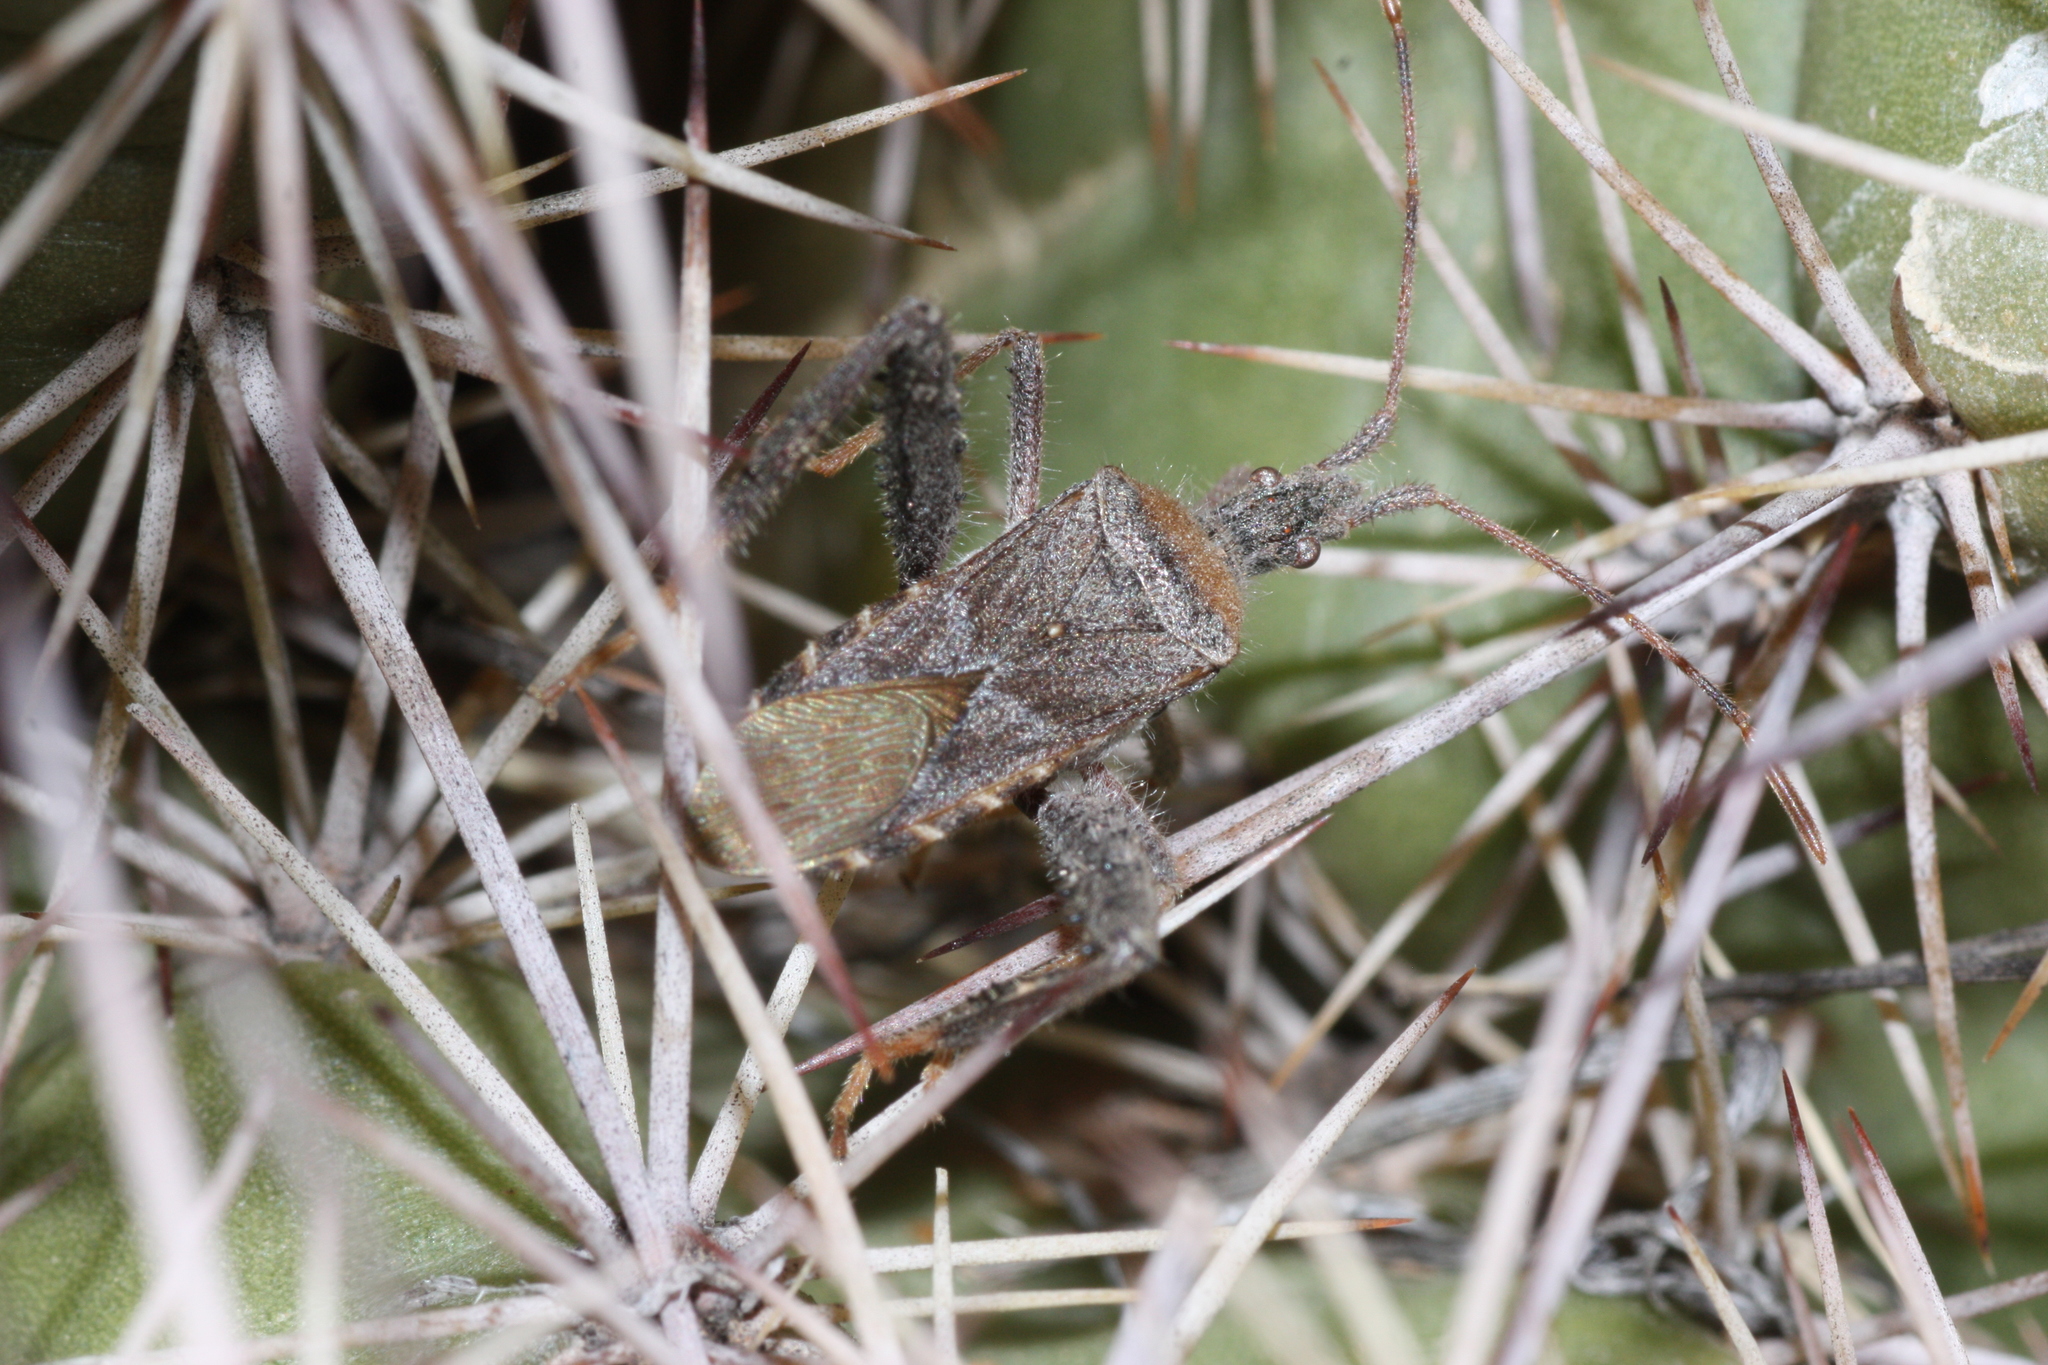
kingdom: Animalia
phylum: Arthropoda
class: Insecta
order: Hemiptera
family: Coreidae
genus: Narnia
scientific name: Narnia femorata
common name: Leaf-footed cactus bug
